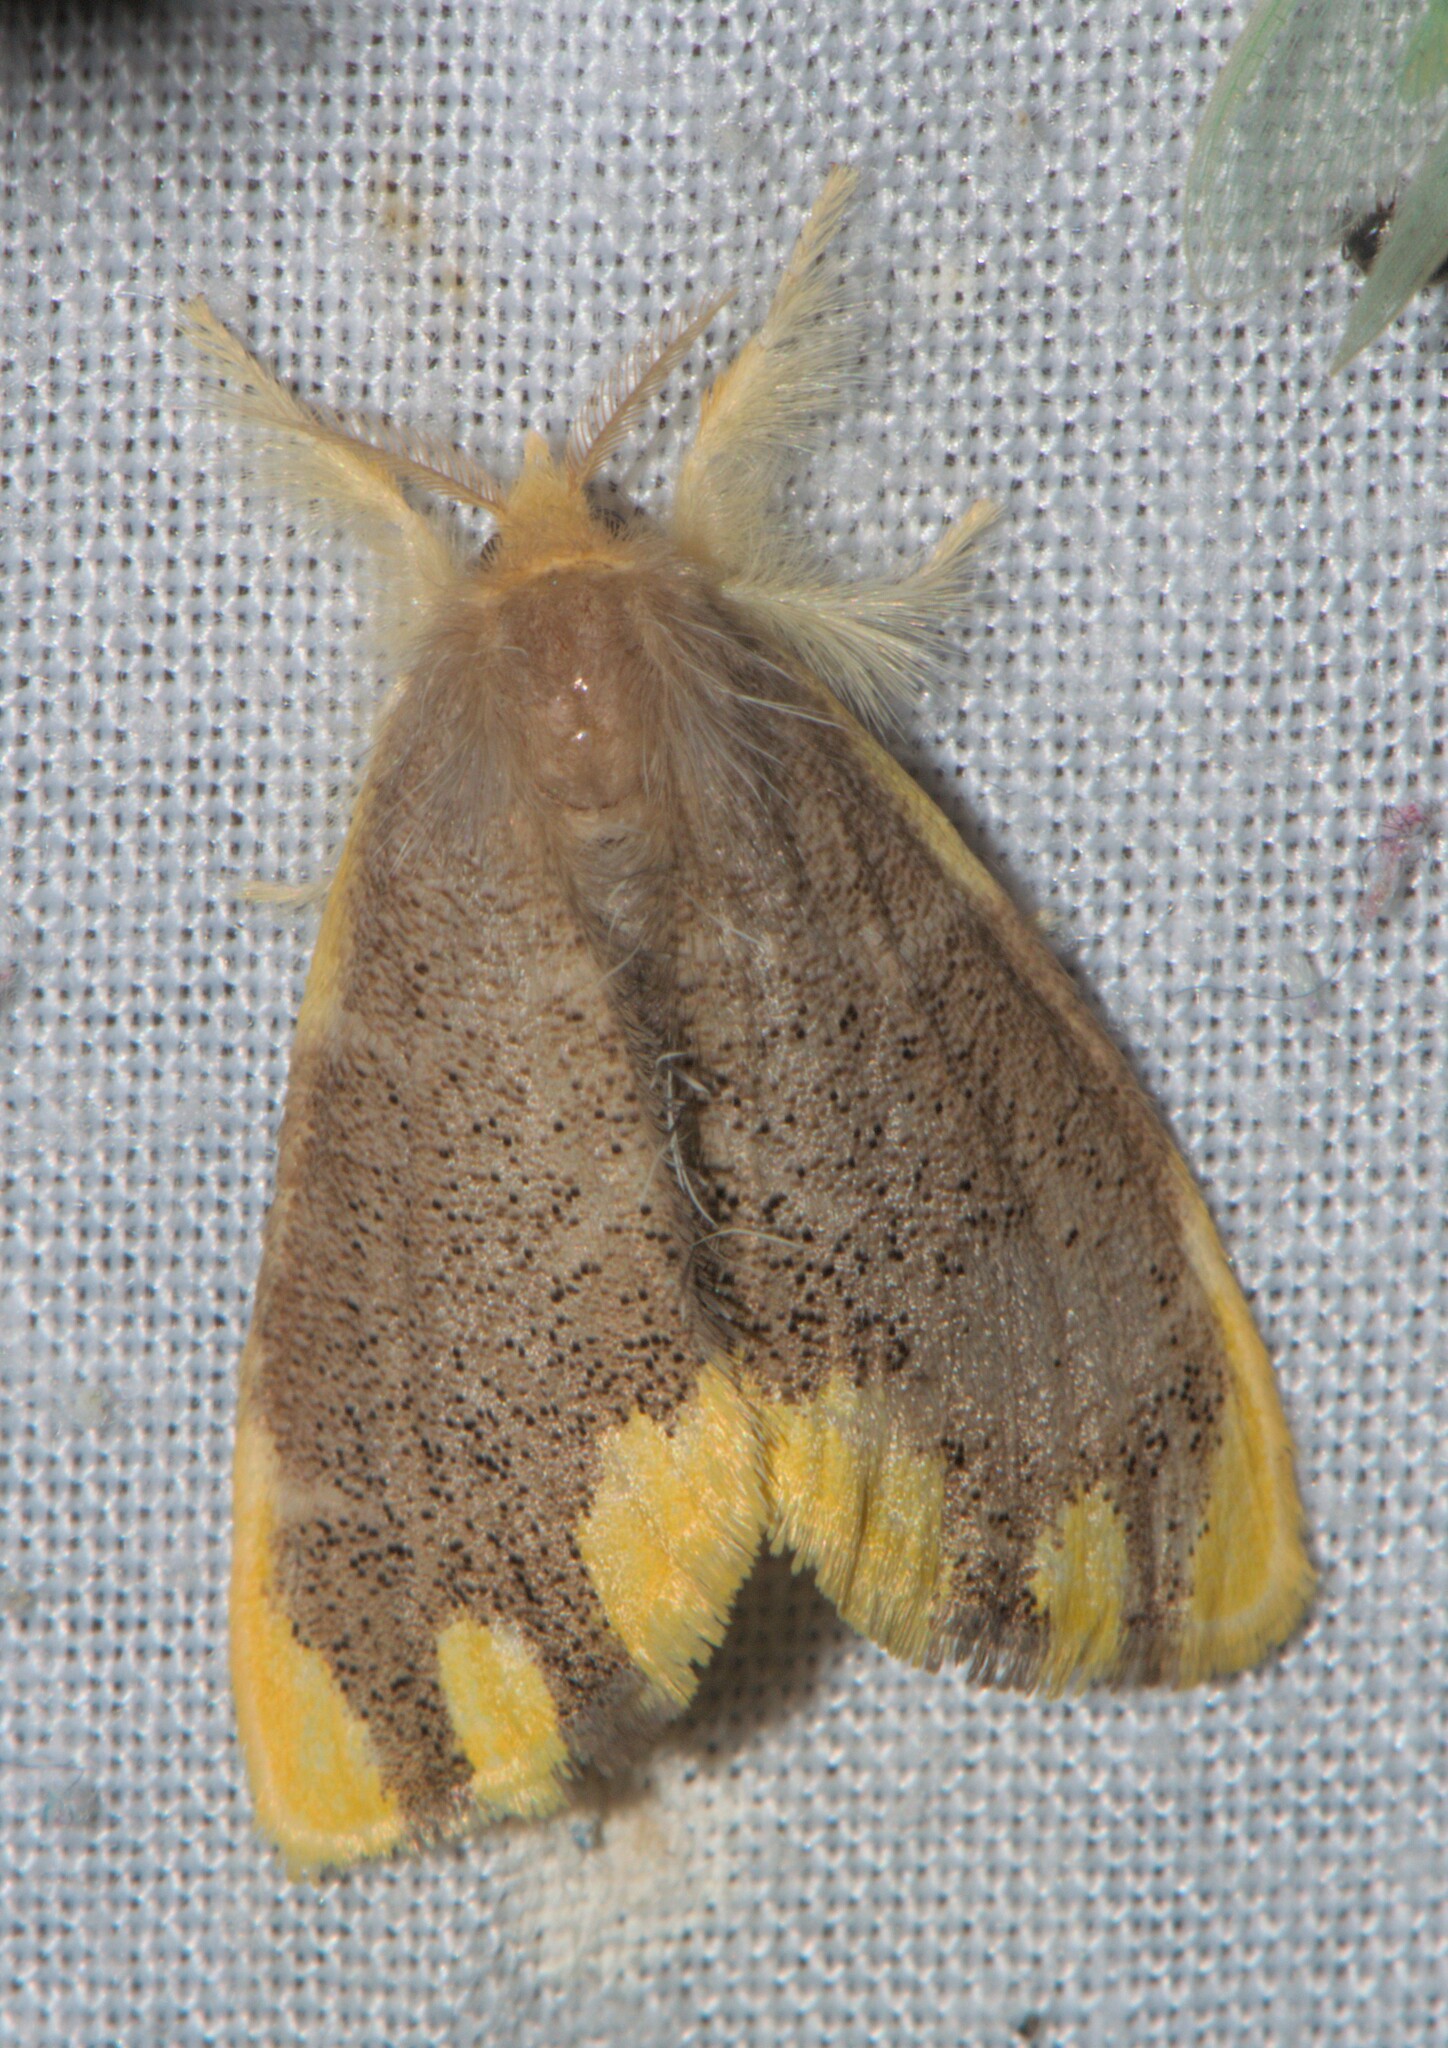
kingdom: Animalia
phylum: Arthropoda
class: Insecta
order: Lepidoptera
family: Erebidae
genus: Orvasca
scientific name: Orvasca subnotata
